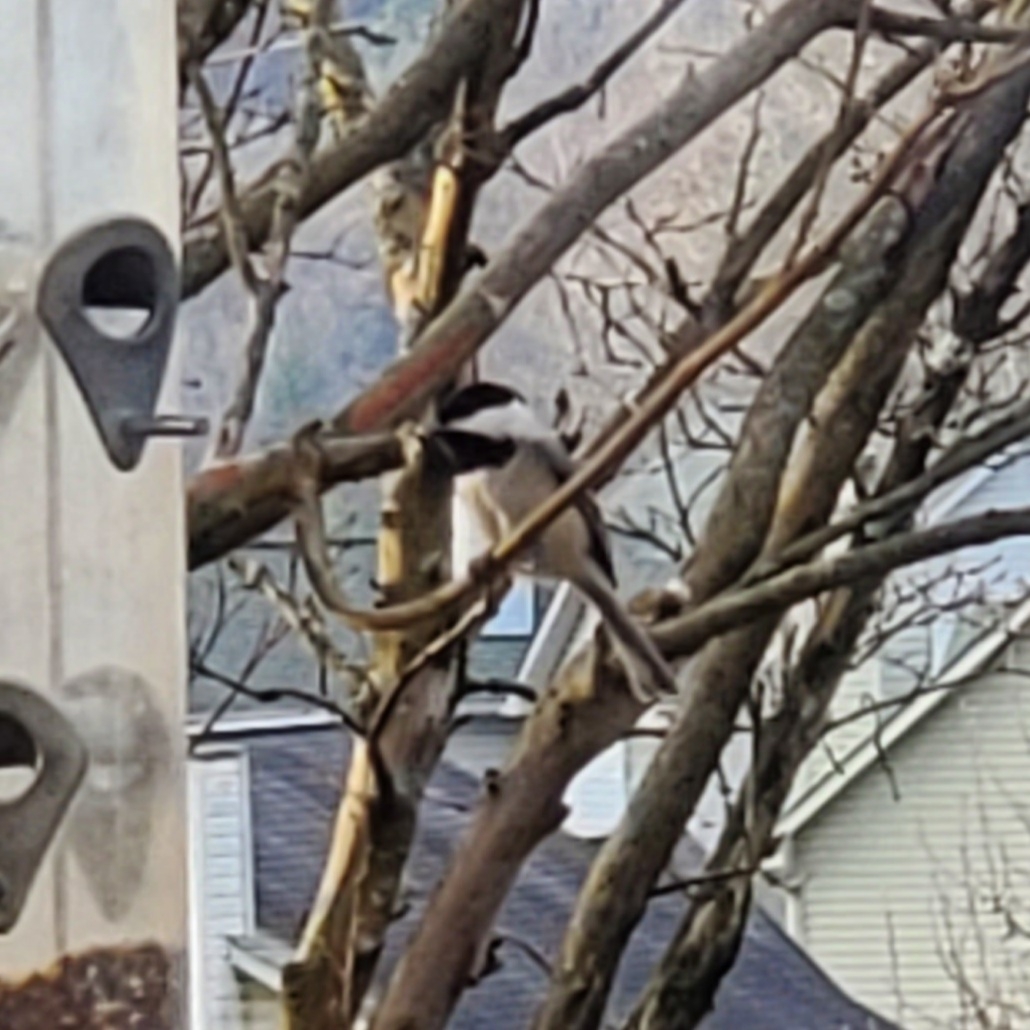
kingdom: Animalia
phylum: Chordata
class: Aves
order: Passeriformes
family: Paridae
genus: Poecile
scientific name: Poecile carolinensis
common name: Carolina chickadee
